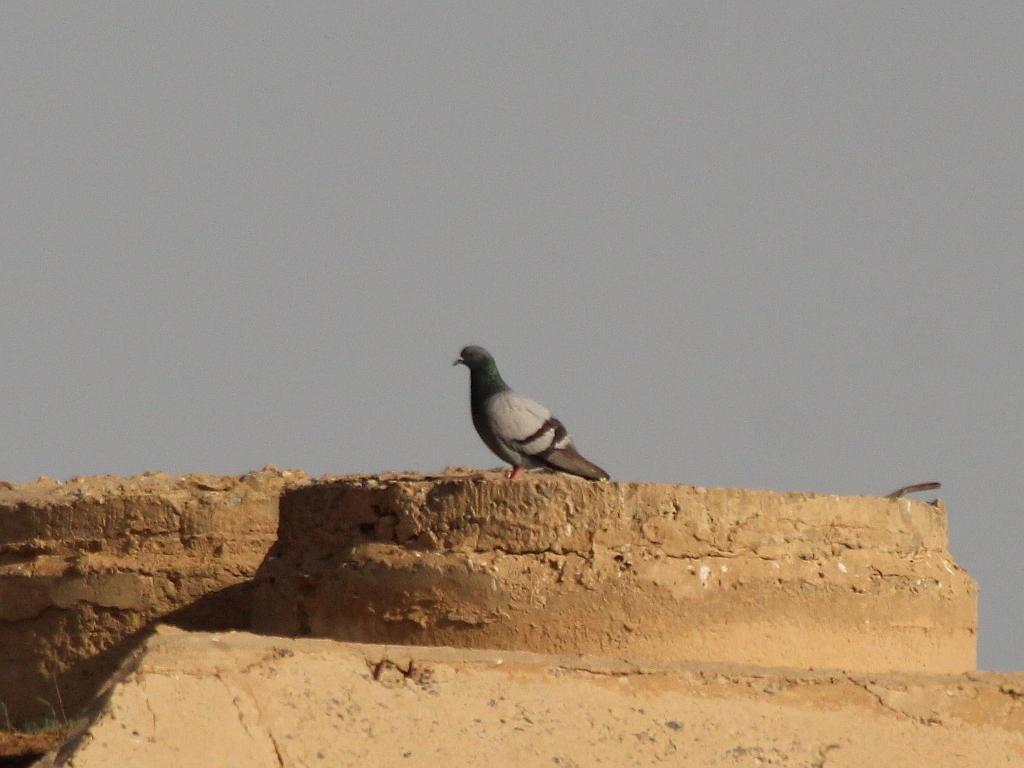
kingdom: Animalia
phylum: Chordata
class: Aves
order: Columbiformes
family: Columbidae
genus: Columba
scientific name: Columba livia
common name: Rock pigeon
